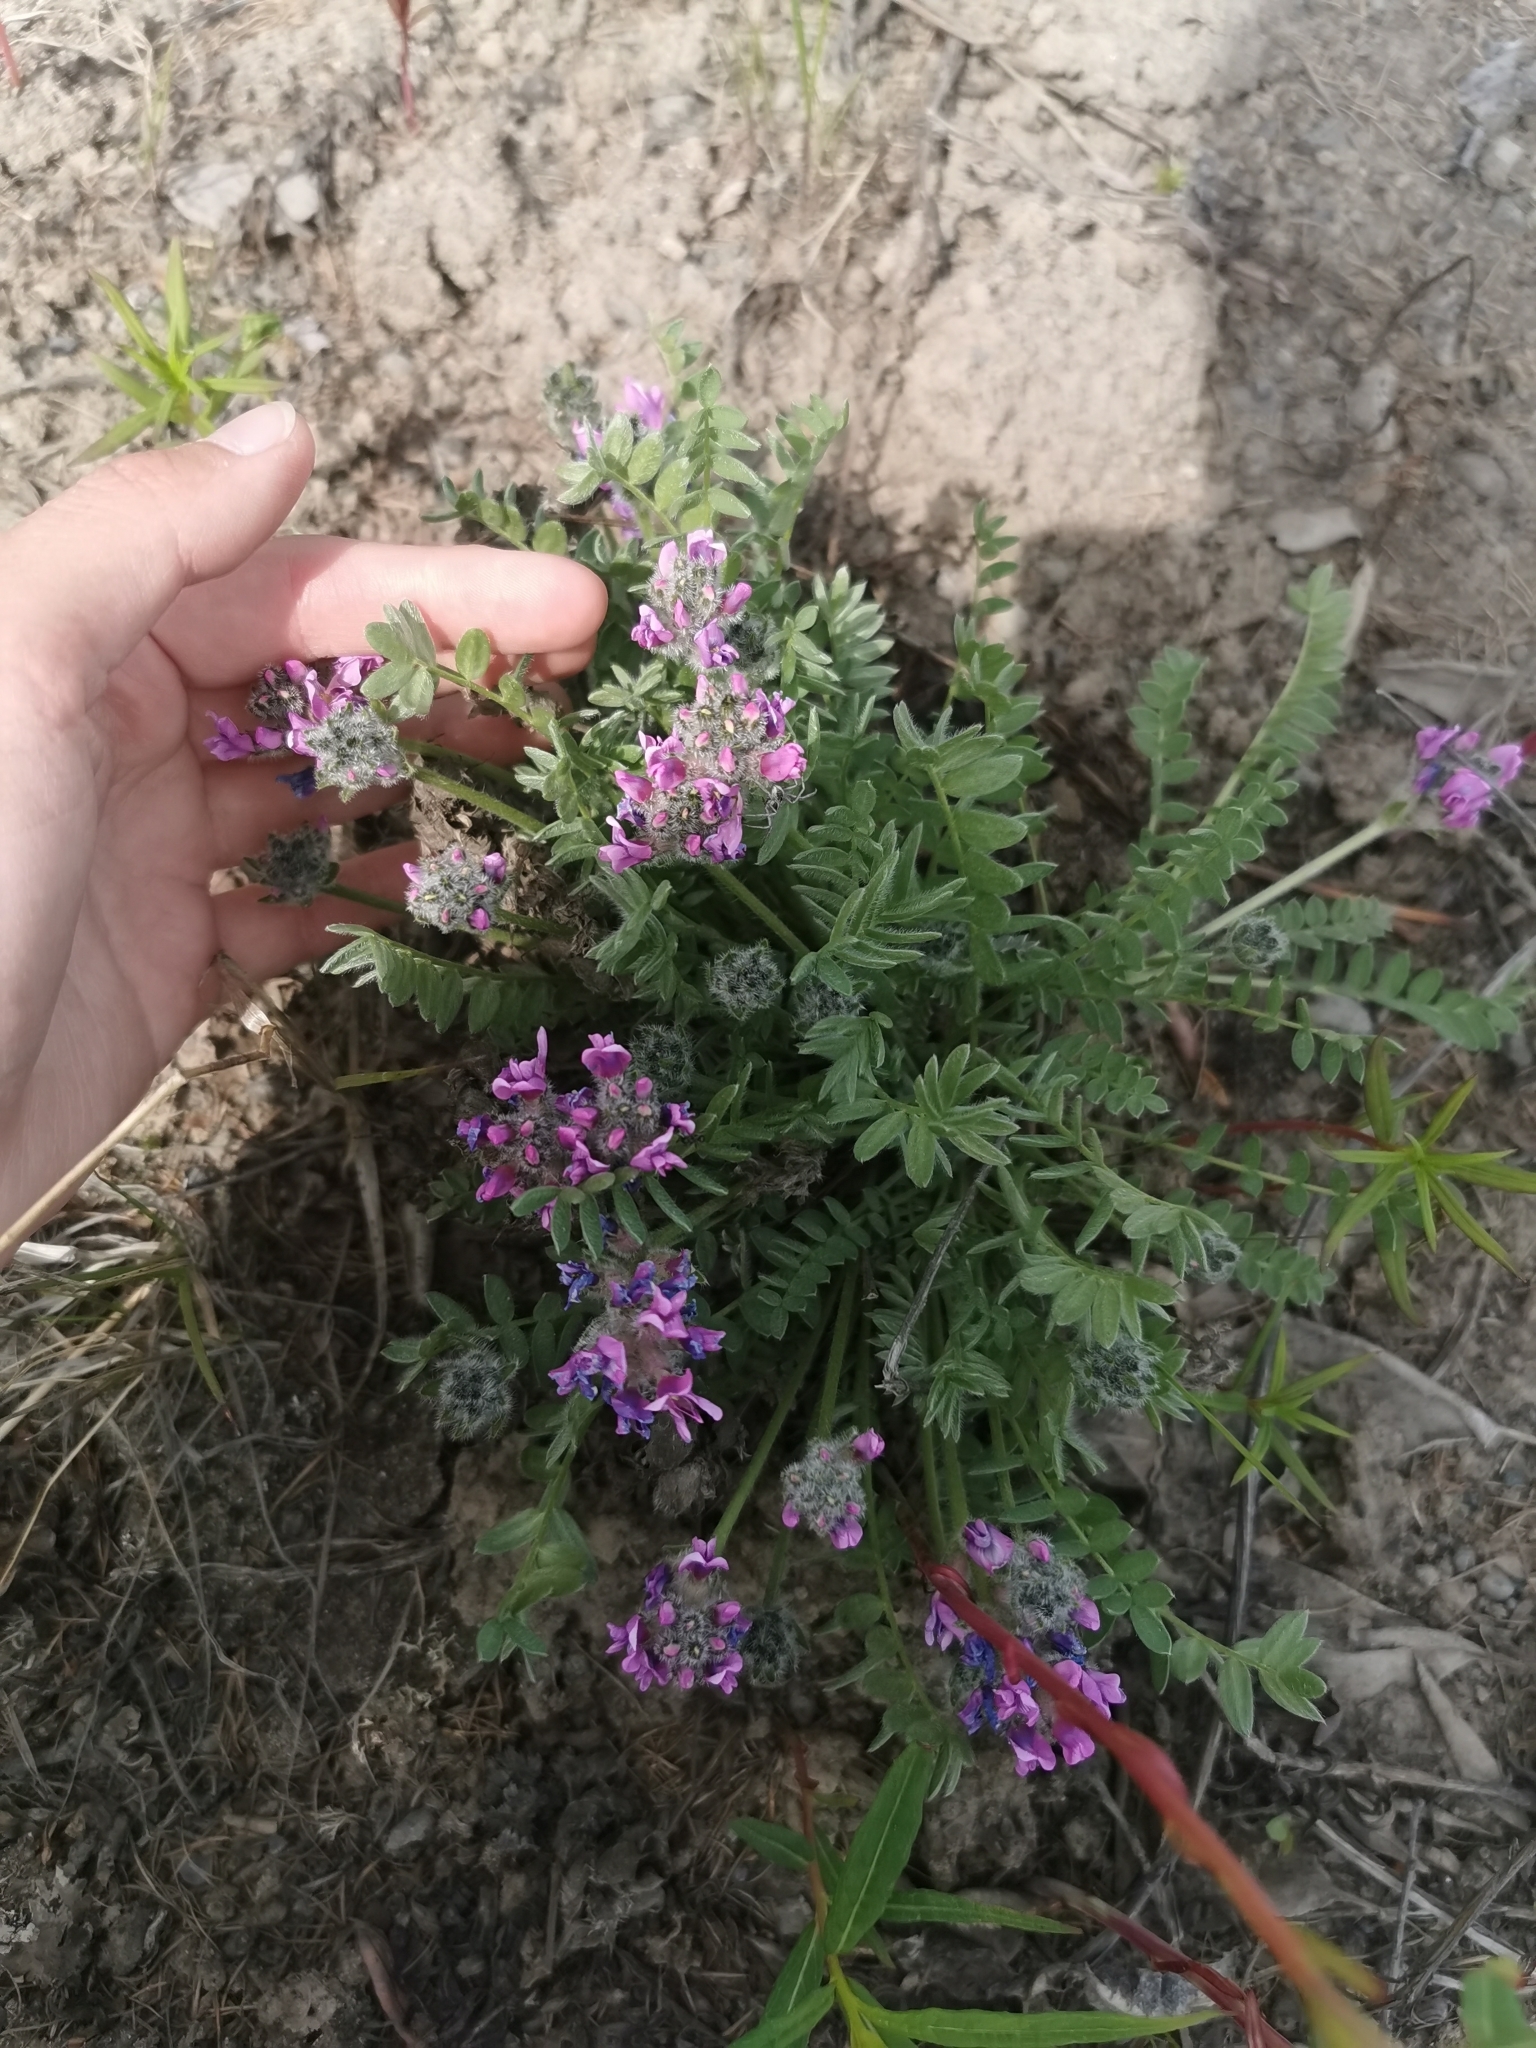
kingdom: Plantae
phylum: Tracheophyta
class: Magnoliopsida
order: Fabales
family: Fabaceae
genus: Oxytropis
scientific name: Oxytropis adamsiana
